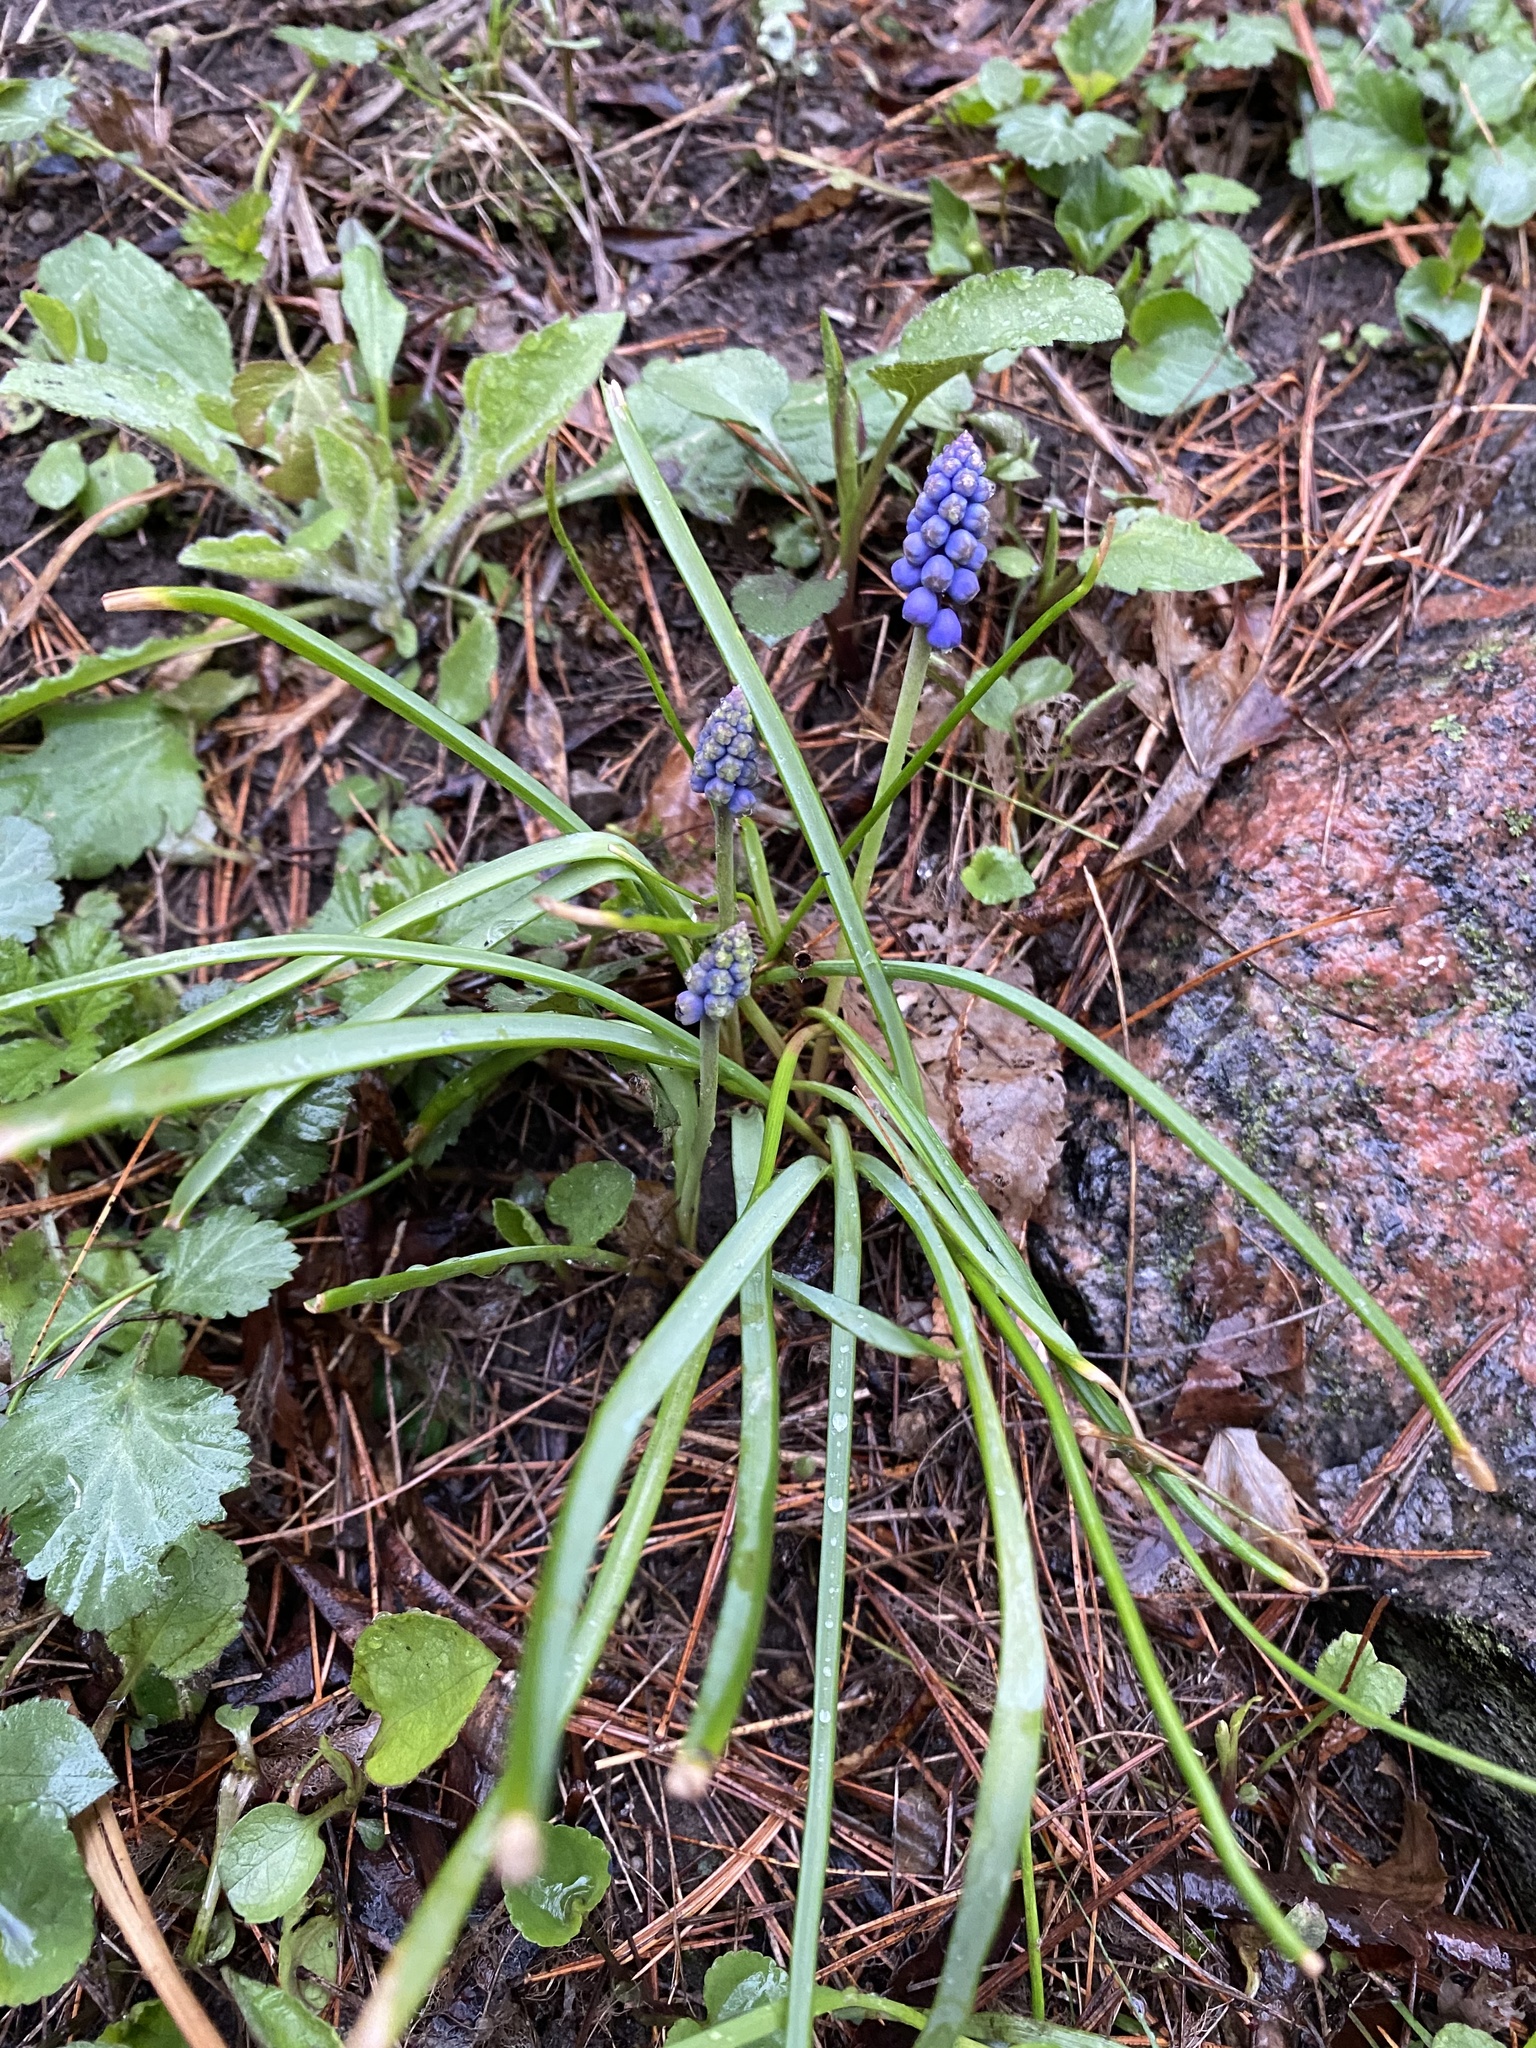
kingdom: Plantae
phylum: Tracheophyta
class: Liliopsida
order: Asparagales
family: Asparagaceae
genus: Muscari
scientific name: Muscari neglectum
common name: Grape-hyacinth
